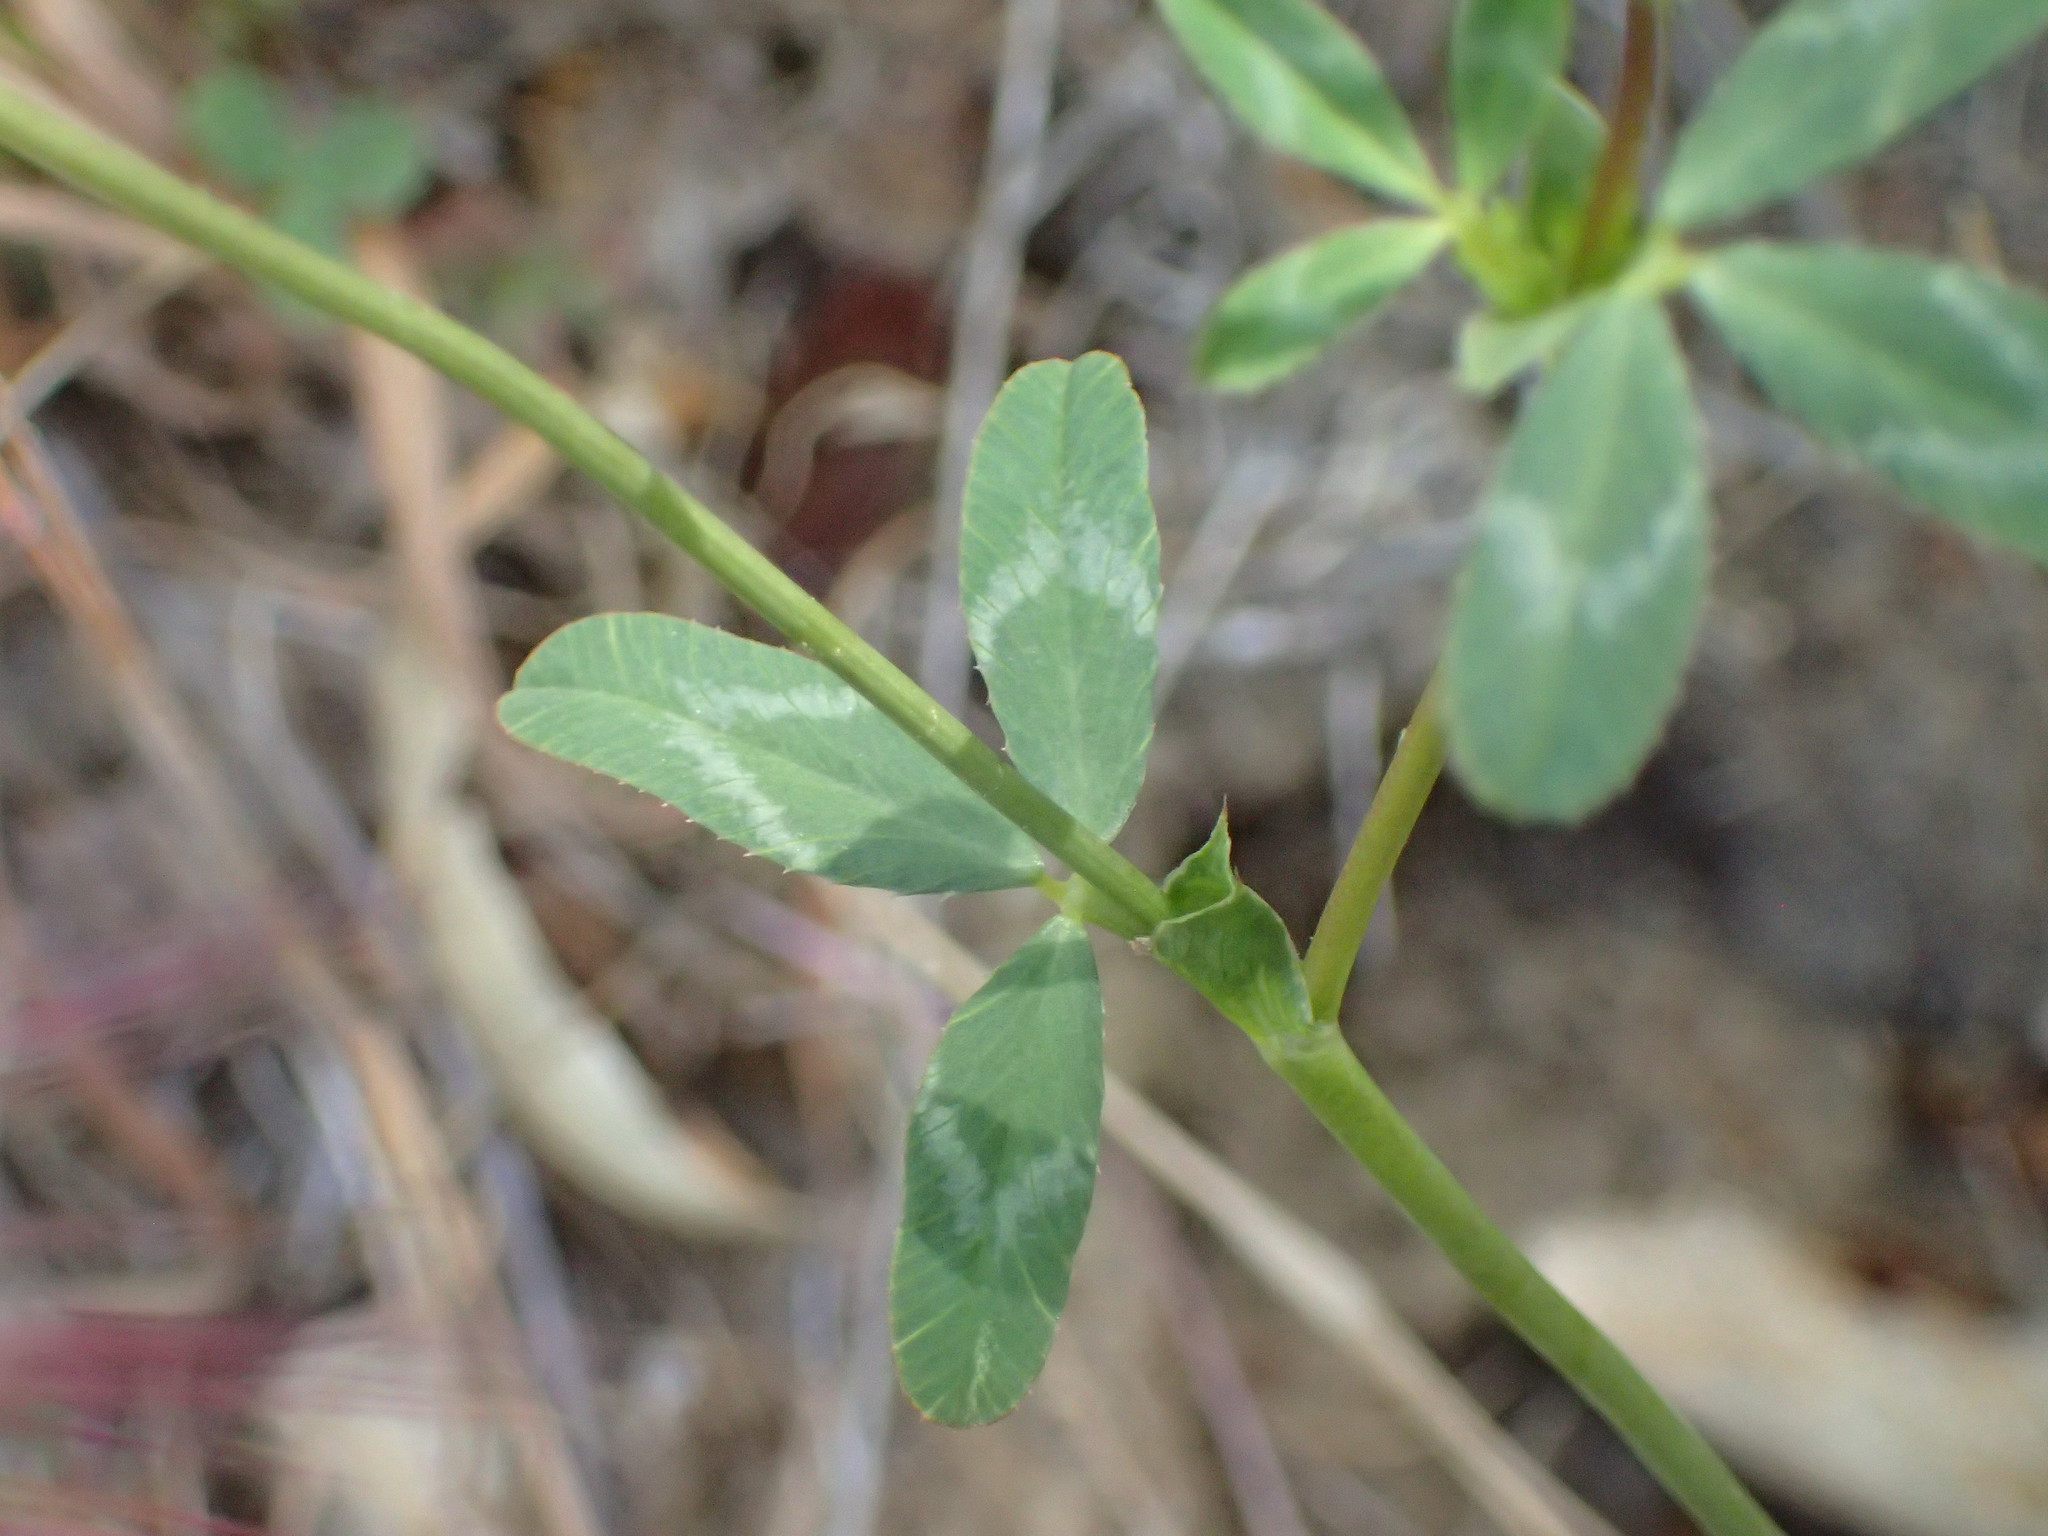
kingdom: Plantae
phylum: Tracheophyta
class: Magnoliopsida
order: Fabales
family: Fabaceae
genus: Trifolium
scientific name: Trifolium ciliolatum
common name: Foothill clover
